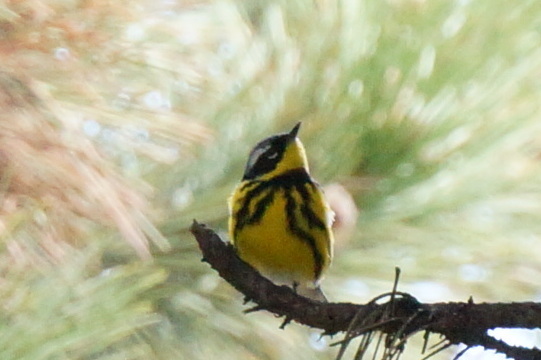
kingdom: Animalia
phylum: Chordata
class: Aves
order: Passeriformes
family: Parulidae
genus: Setophaga
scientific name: Setophaga magnolia
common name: Magnolia warbler
